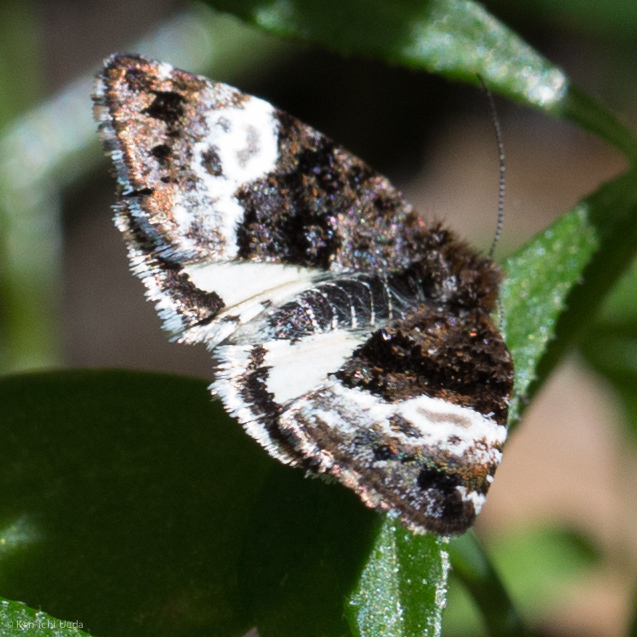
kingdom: Animalia
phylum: Arthropoda
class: Insecta
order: Lepidoptera
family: Noctuidae
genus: Annaphila
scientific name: Annaphila diva
